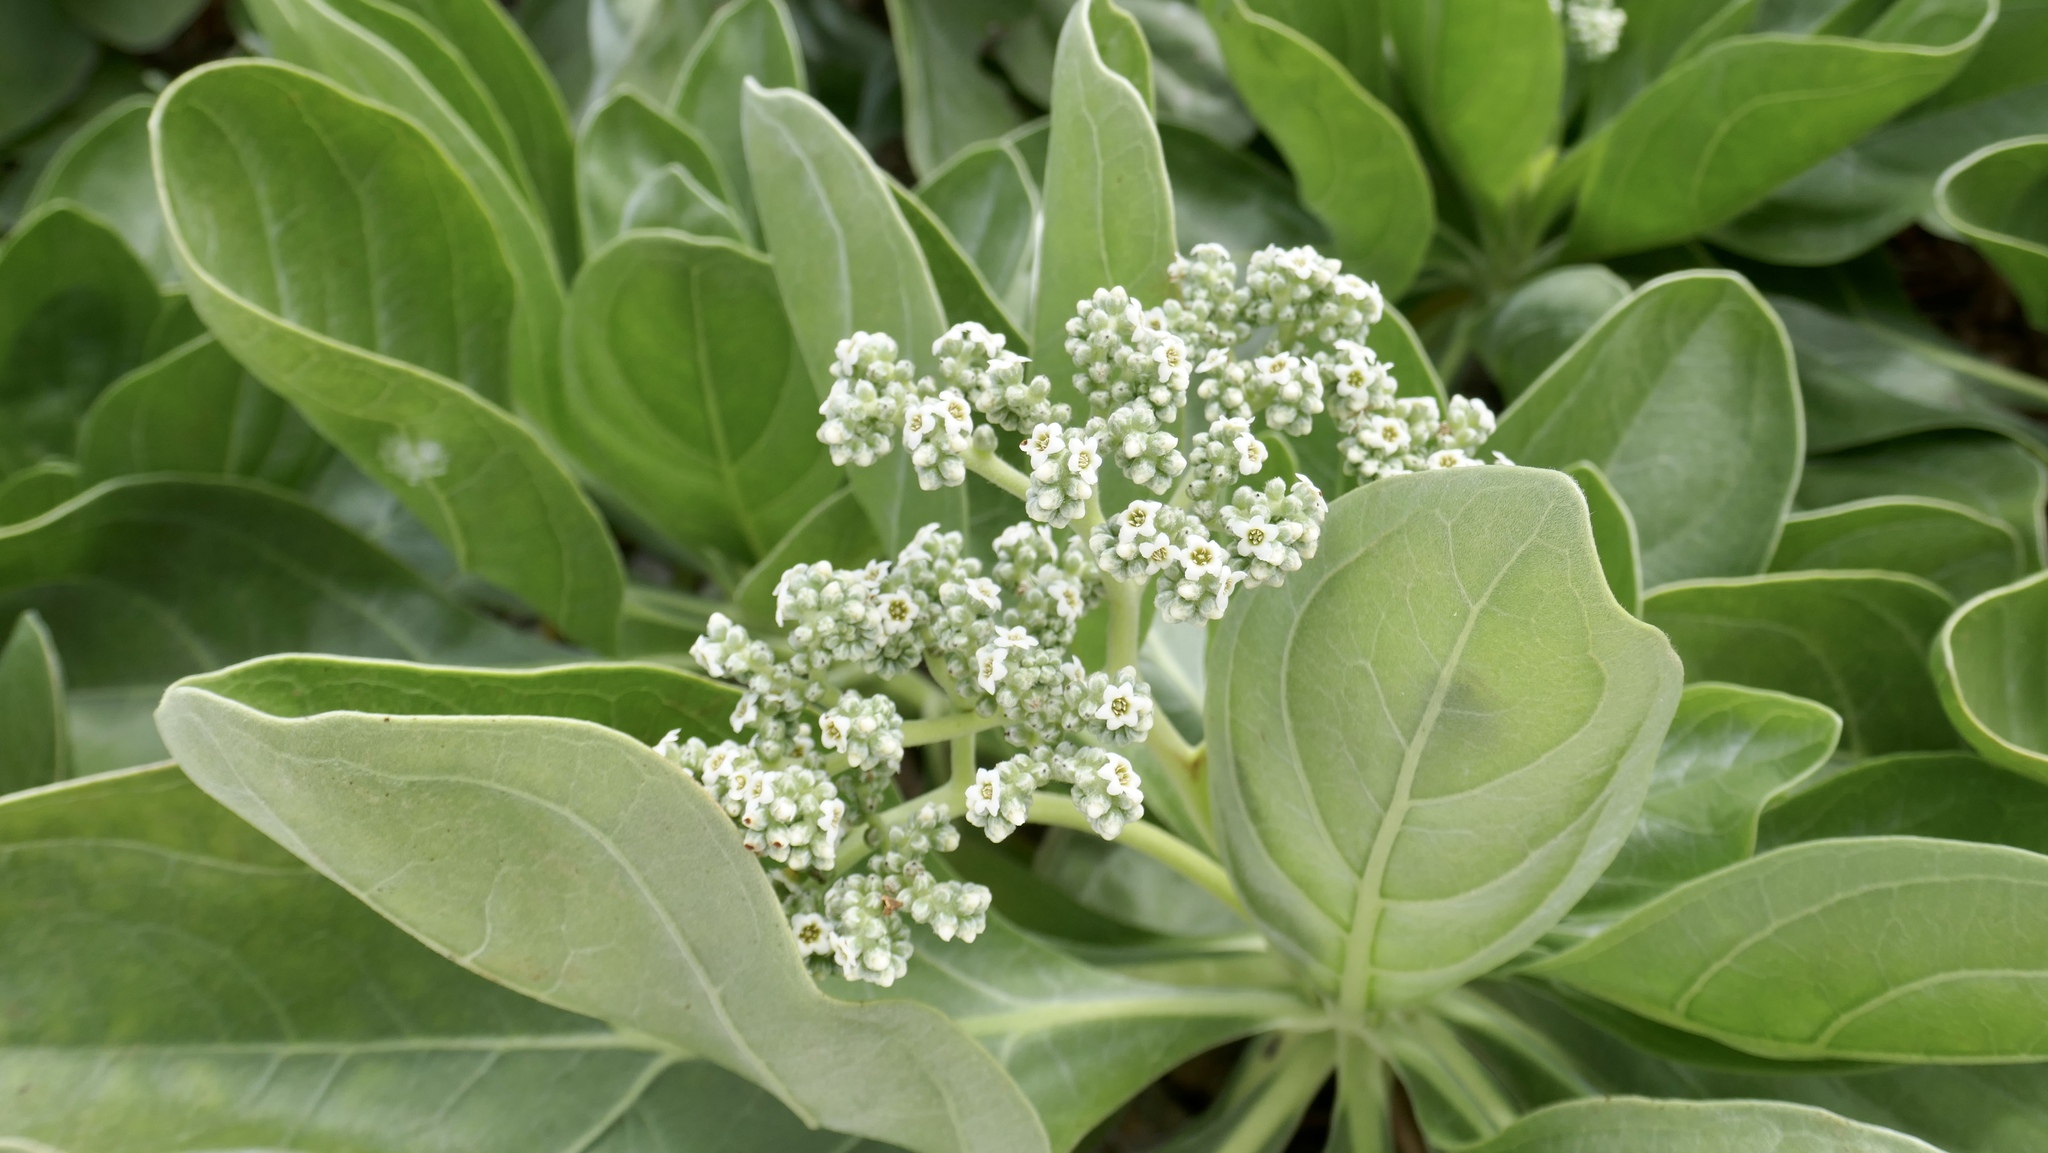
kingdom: Plantae
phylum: Tracheophyta
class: Magnoliopsida
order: Boraginales
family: Heliotropiaceae
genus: Heliotropium
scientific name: Heliotropium velutinum
